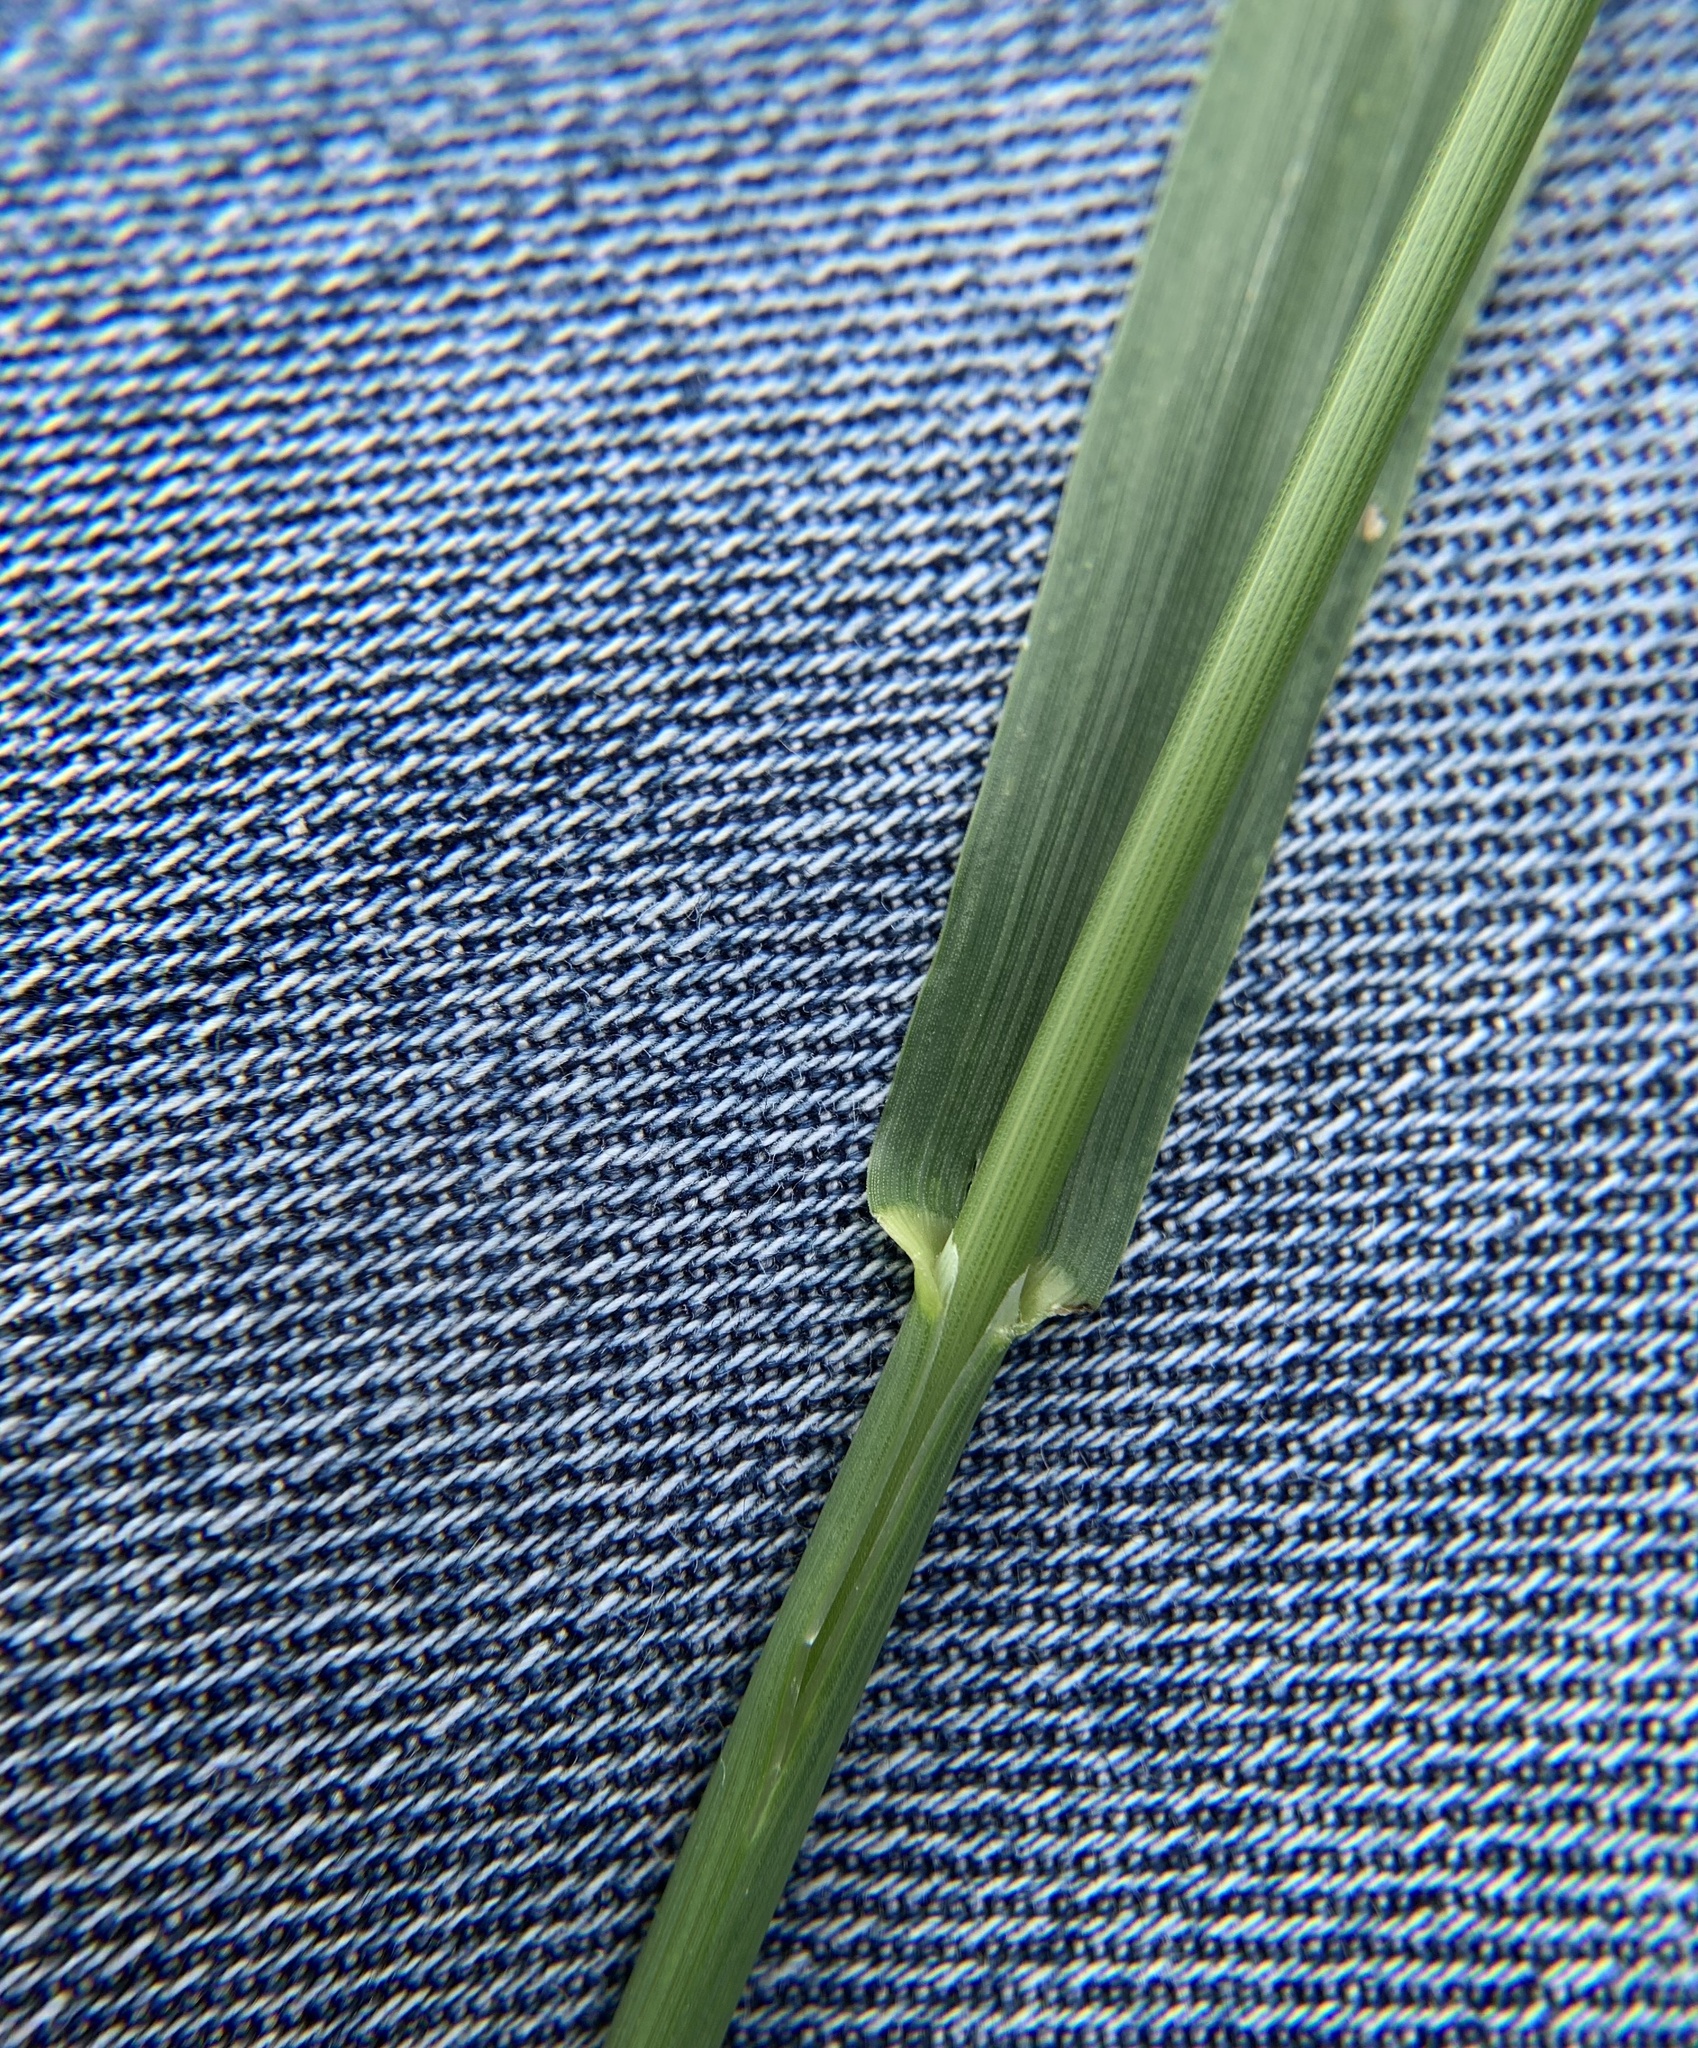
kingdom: Plantae
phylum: Tracheophyta
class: Liliopsida
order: Poales
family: Poaceae
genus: Bromus
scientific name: Bromus inermis
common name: Smooth brome
